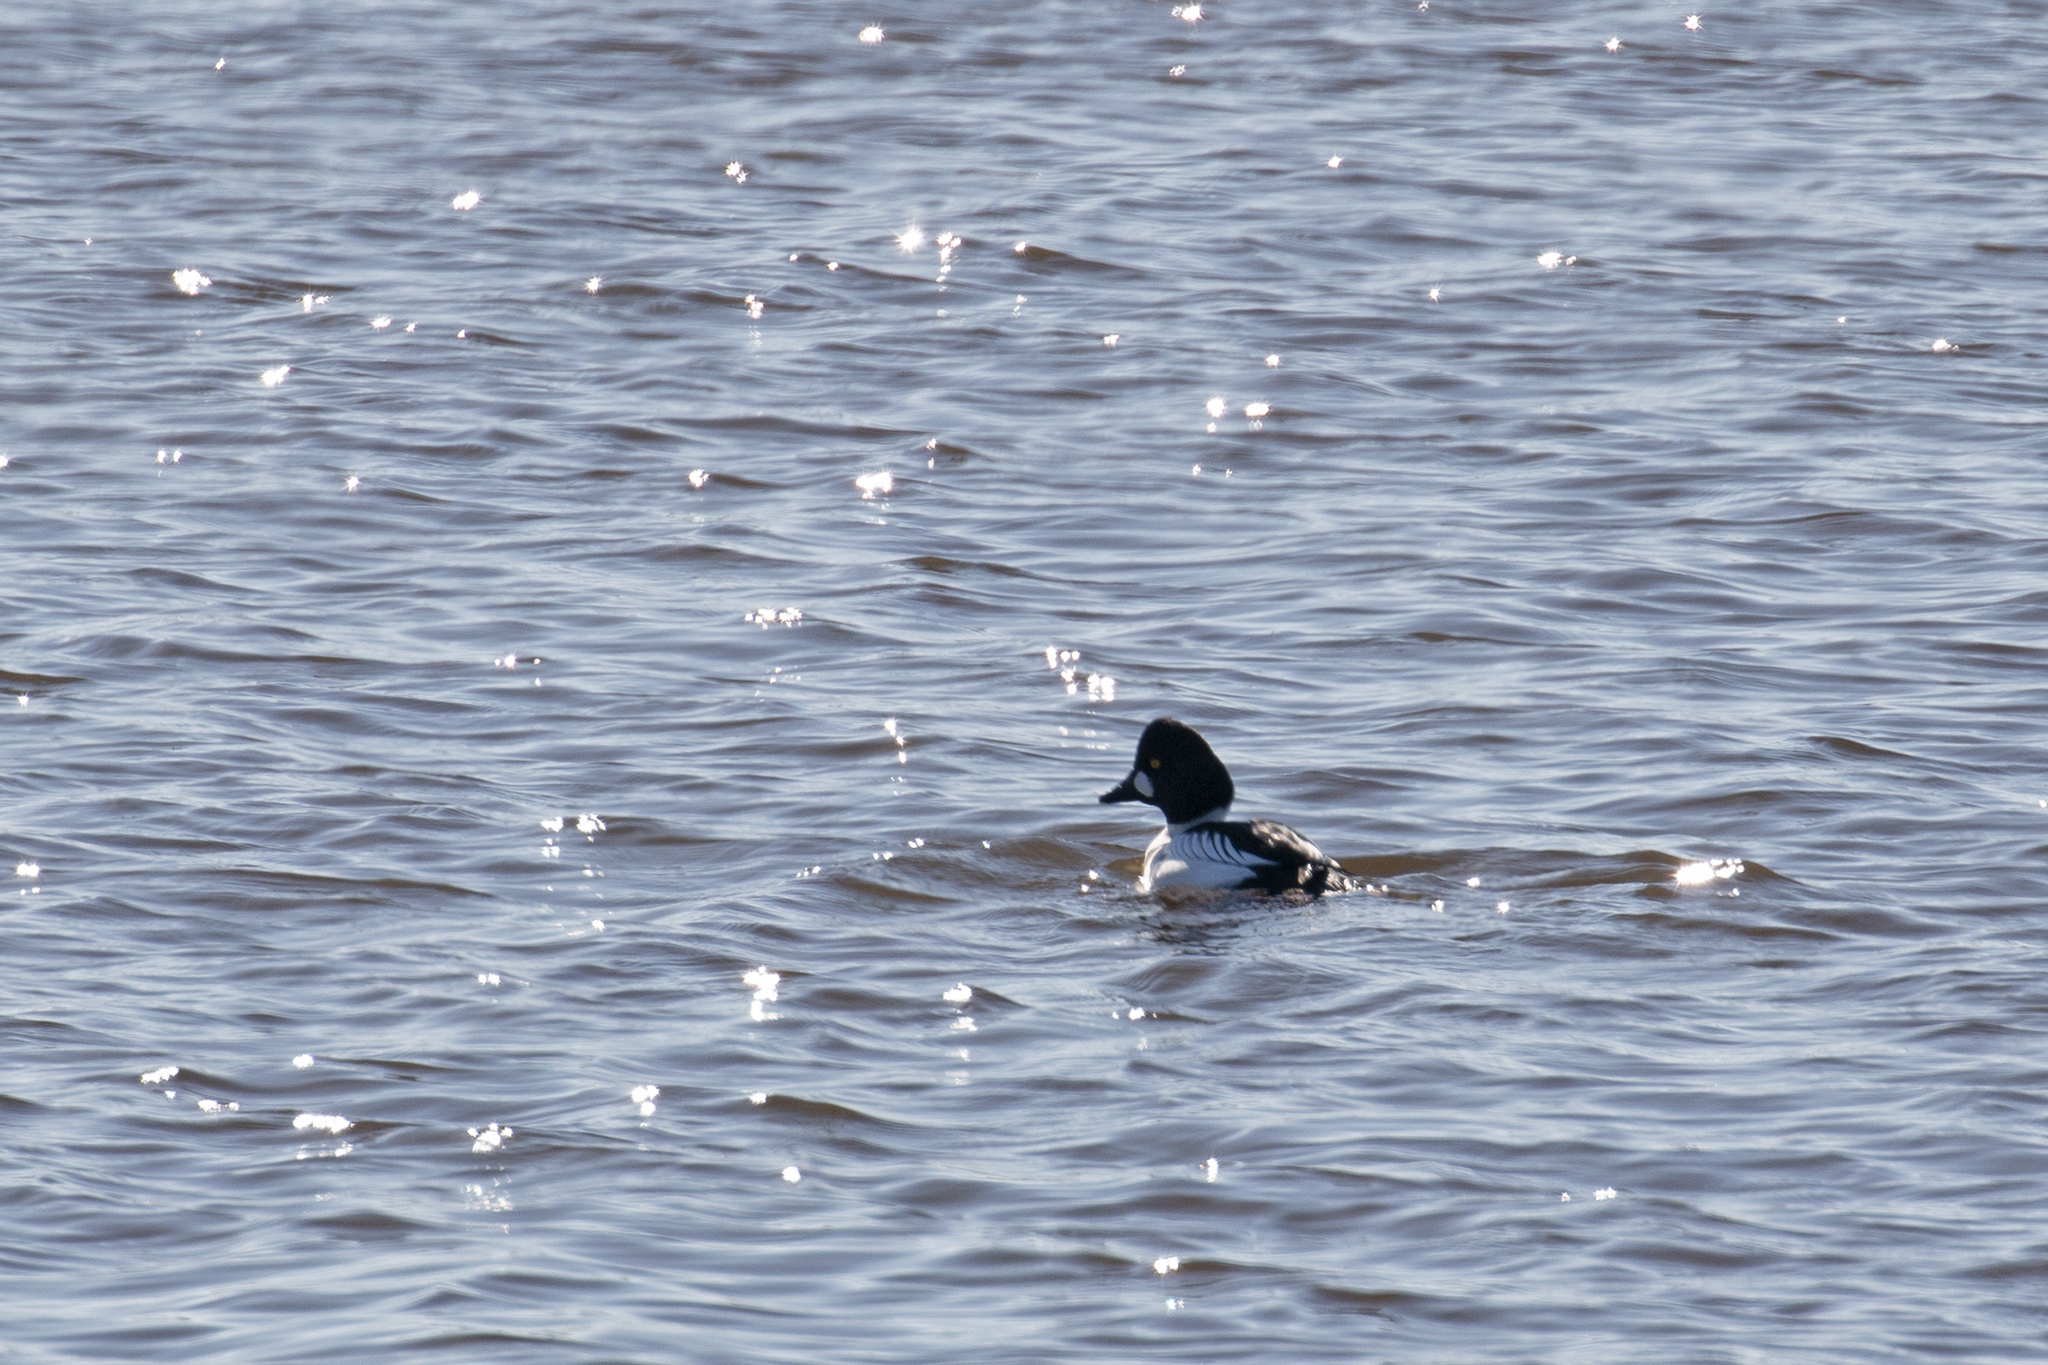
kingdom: Animalia
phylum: Chordata
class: Aves
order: Anseriformes
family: Anatidae
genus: Bucephala
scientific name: Bucephala clangula
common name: Common goldeneye
